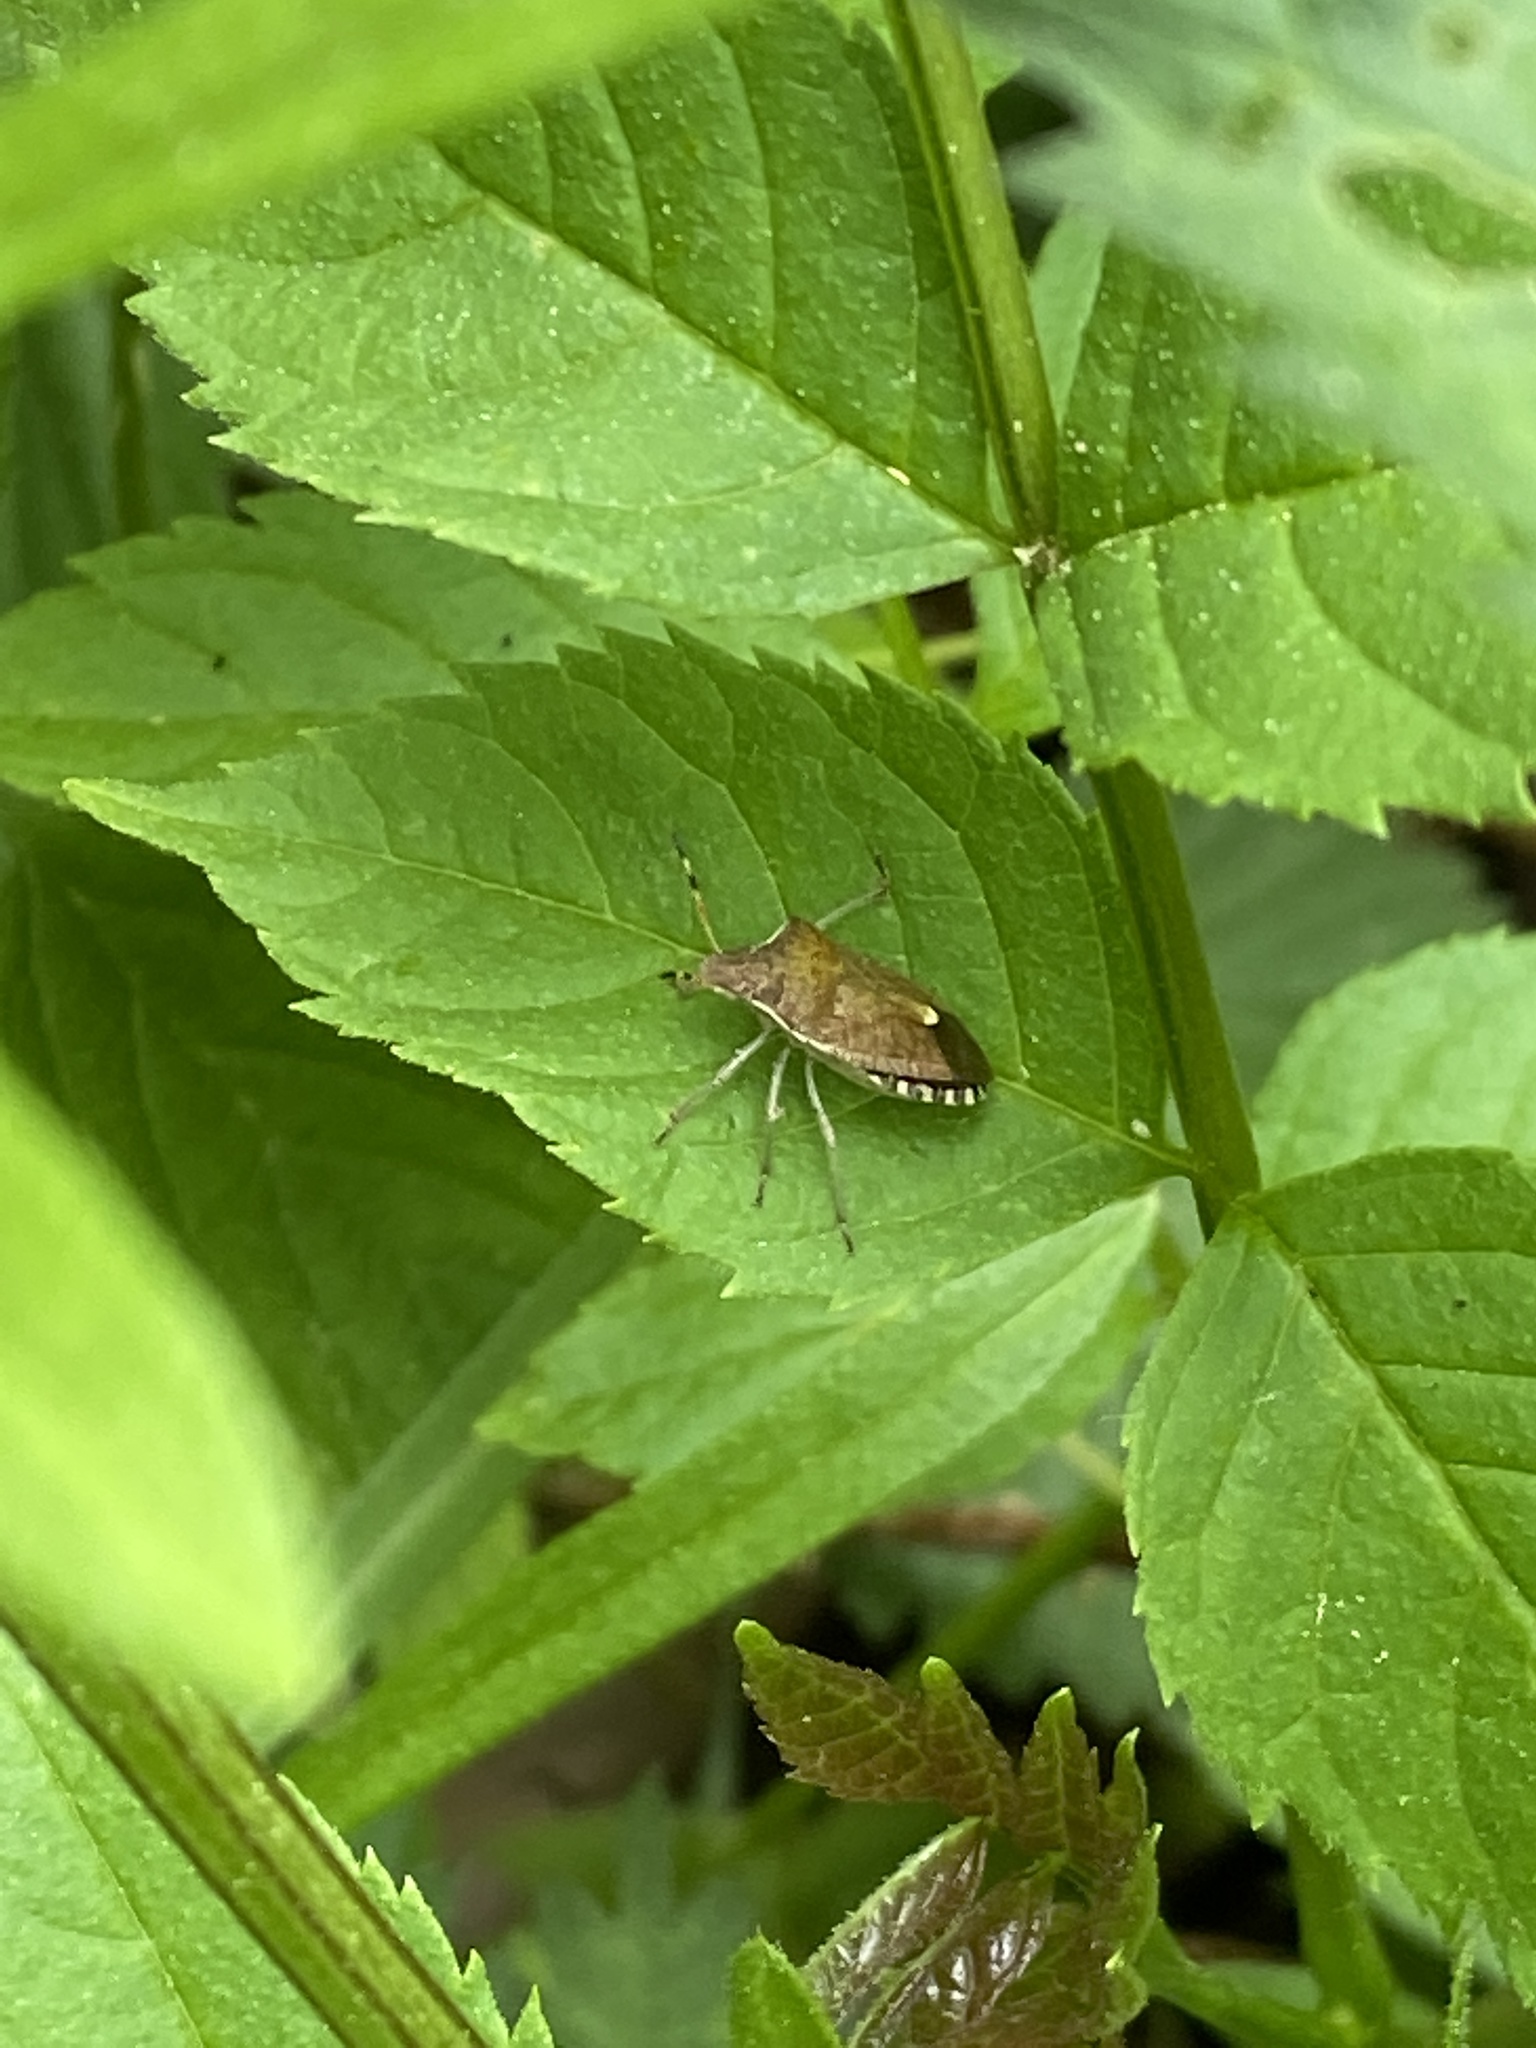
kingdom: Animalia
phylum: Arthropoda
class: Insecta
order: Hemiptera
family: Pentatomidae
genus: Holcostethus
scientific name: Holcostethus strictus
